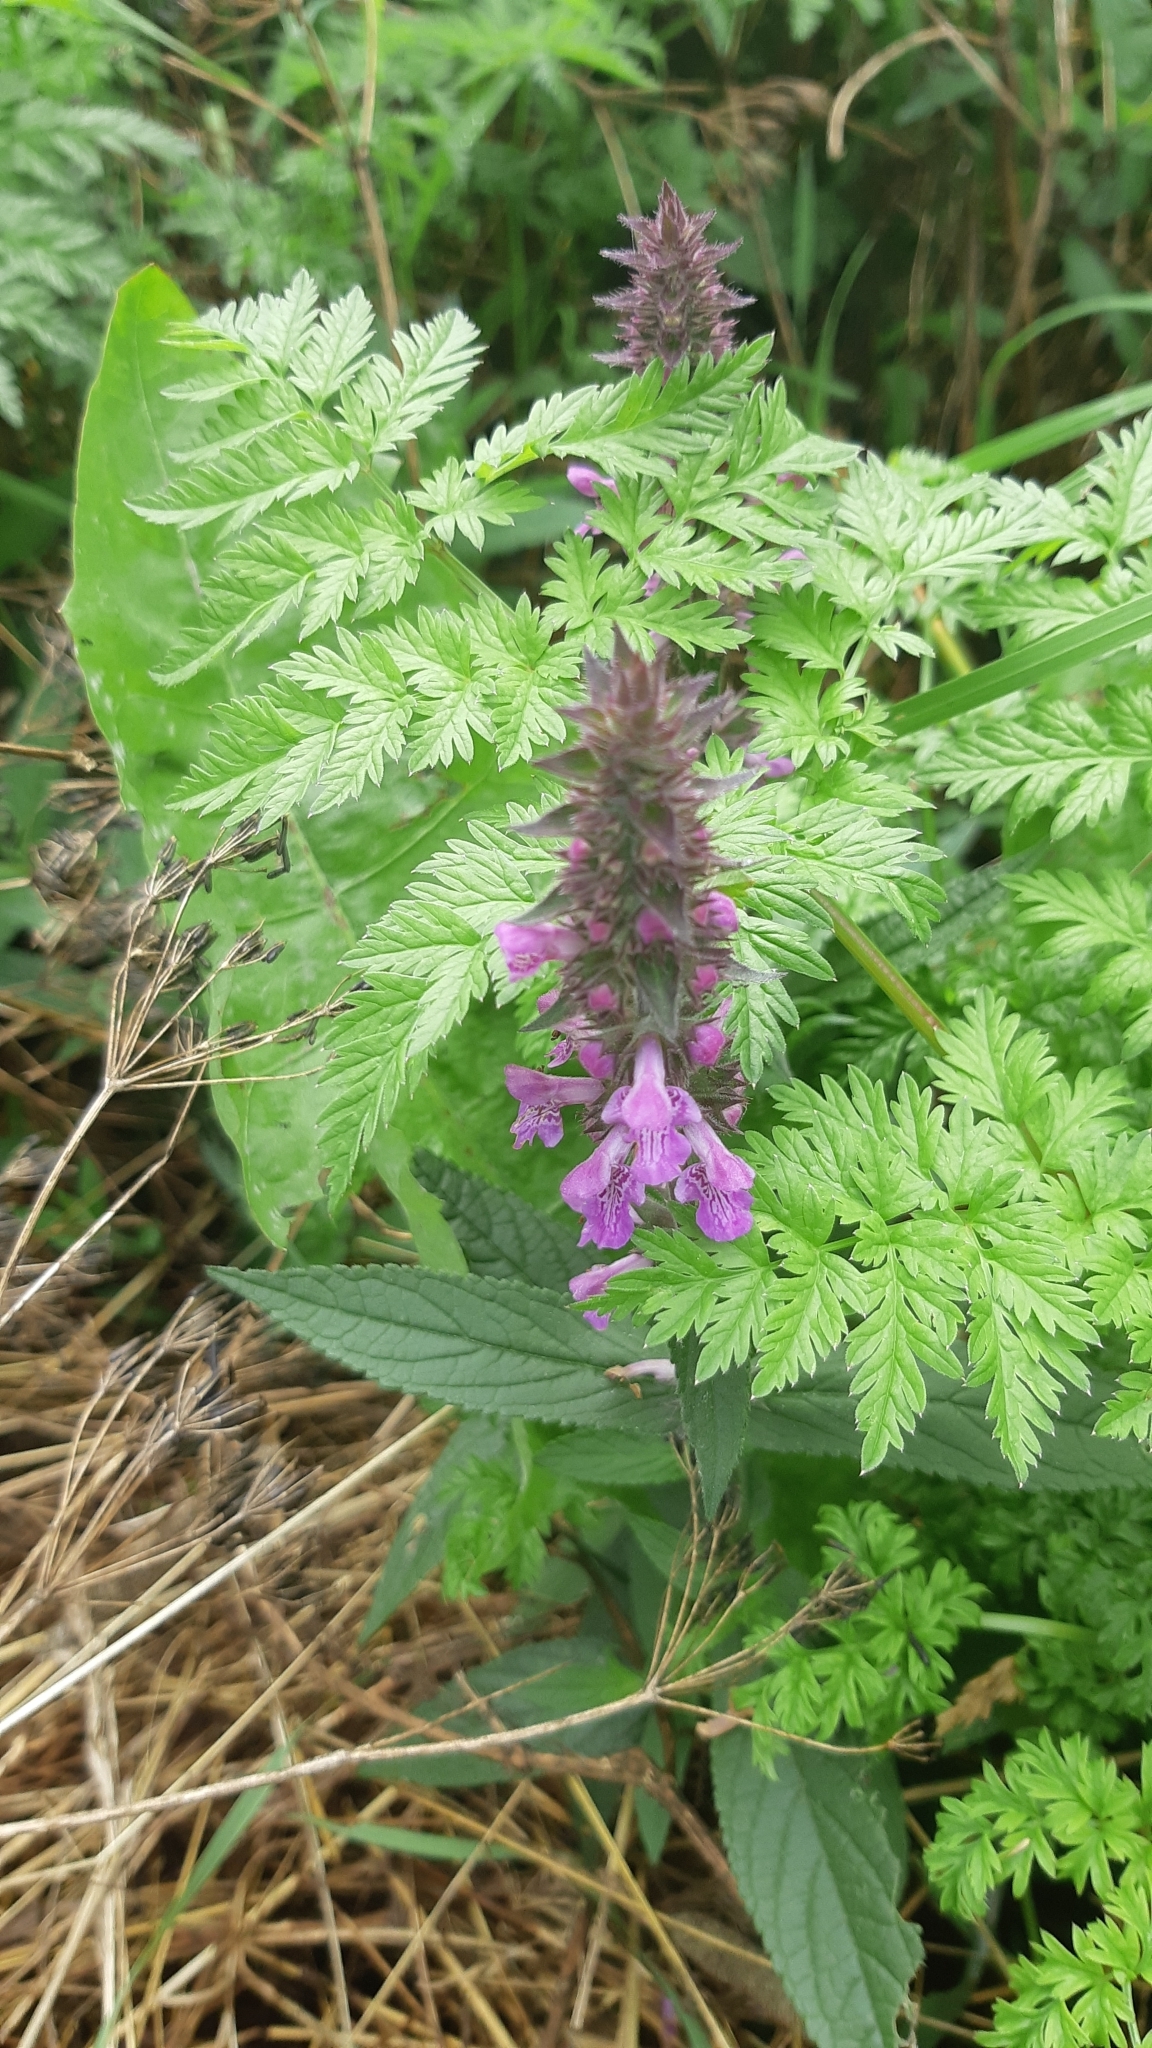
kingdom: Plantae
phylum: Tracheophyta
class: Magnoliopsida
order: Lamiales
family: Lamiaceae
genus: Stachys
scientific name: Stachys palustris
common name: Marsh woundwort
